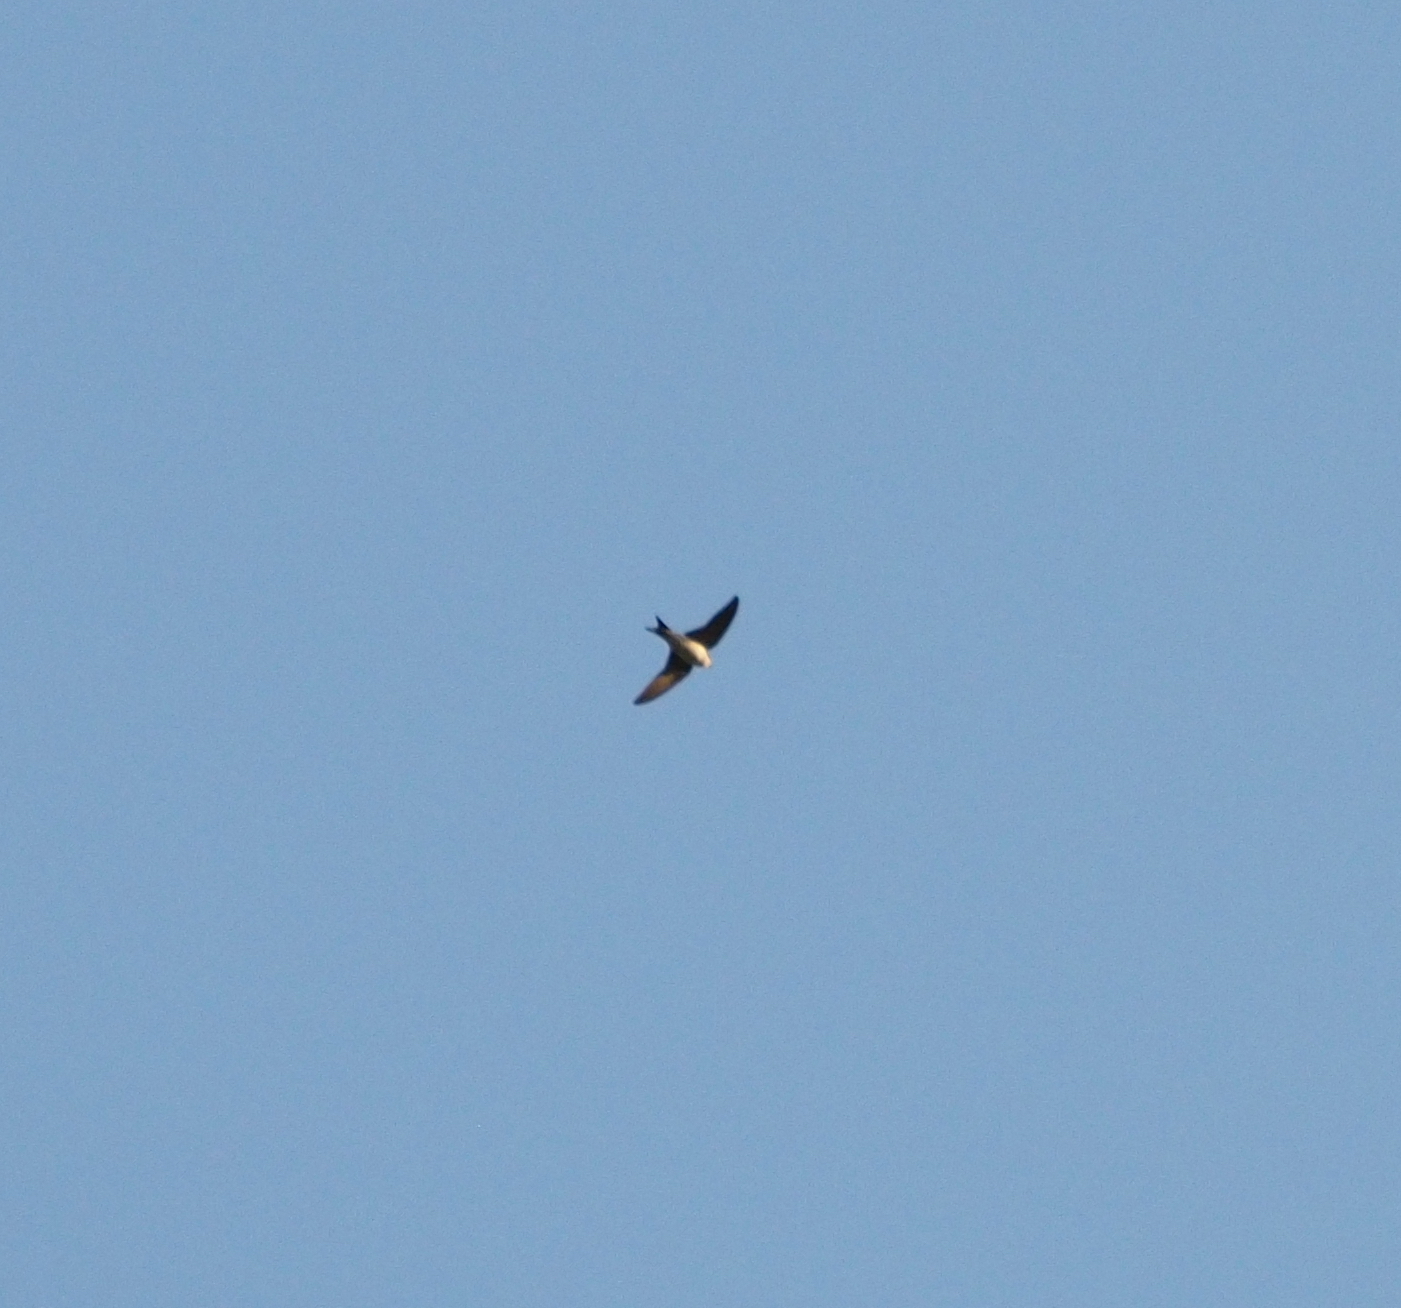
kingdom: Animalia
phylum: Chordata
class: Aves
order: Passeriformes
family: Hirundinidae
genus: Delichon
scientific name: Delichon urbicum
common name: Common house martin
